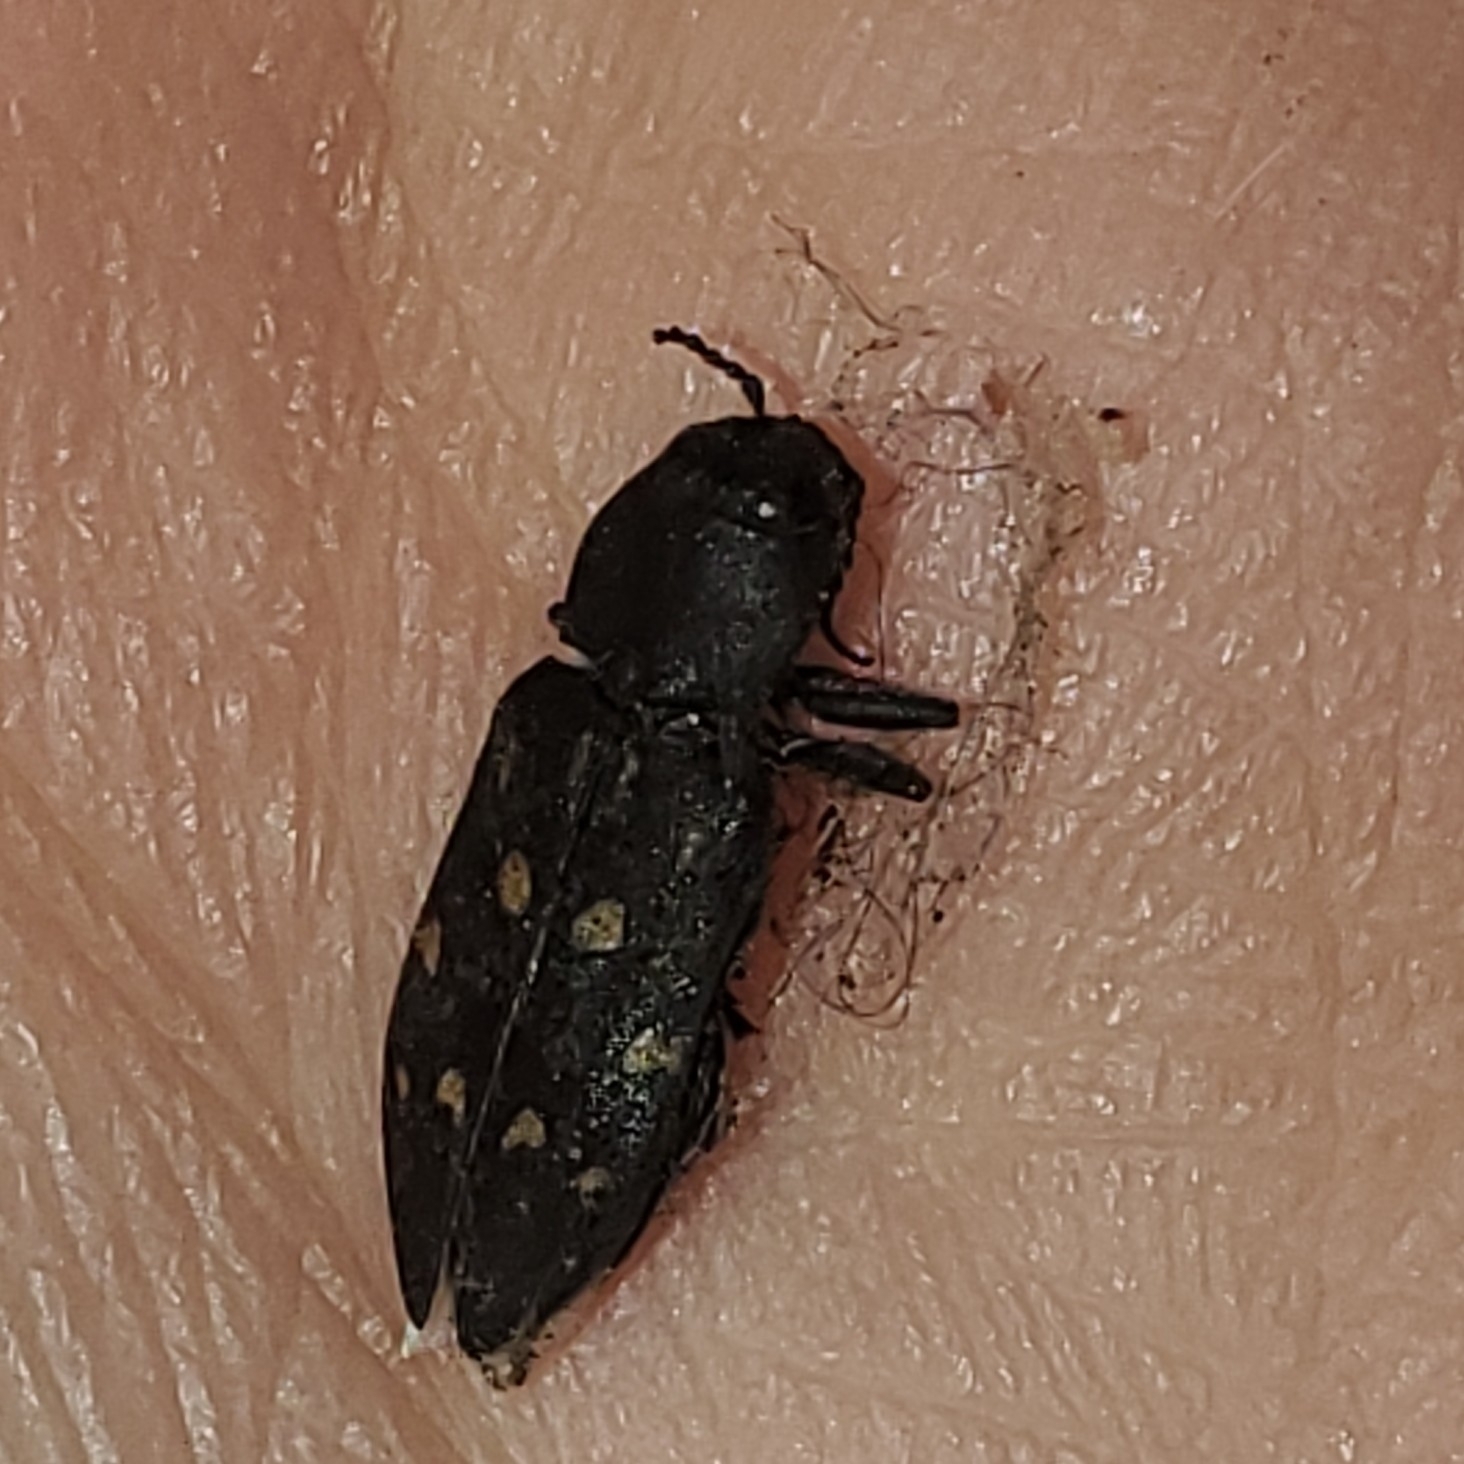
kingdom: Animalia
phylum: Arthropoda
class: Insecta
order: Coleoptera
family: Buprestidae
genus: Melanophila
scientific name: Melanophila consputa
